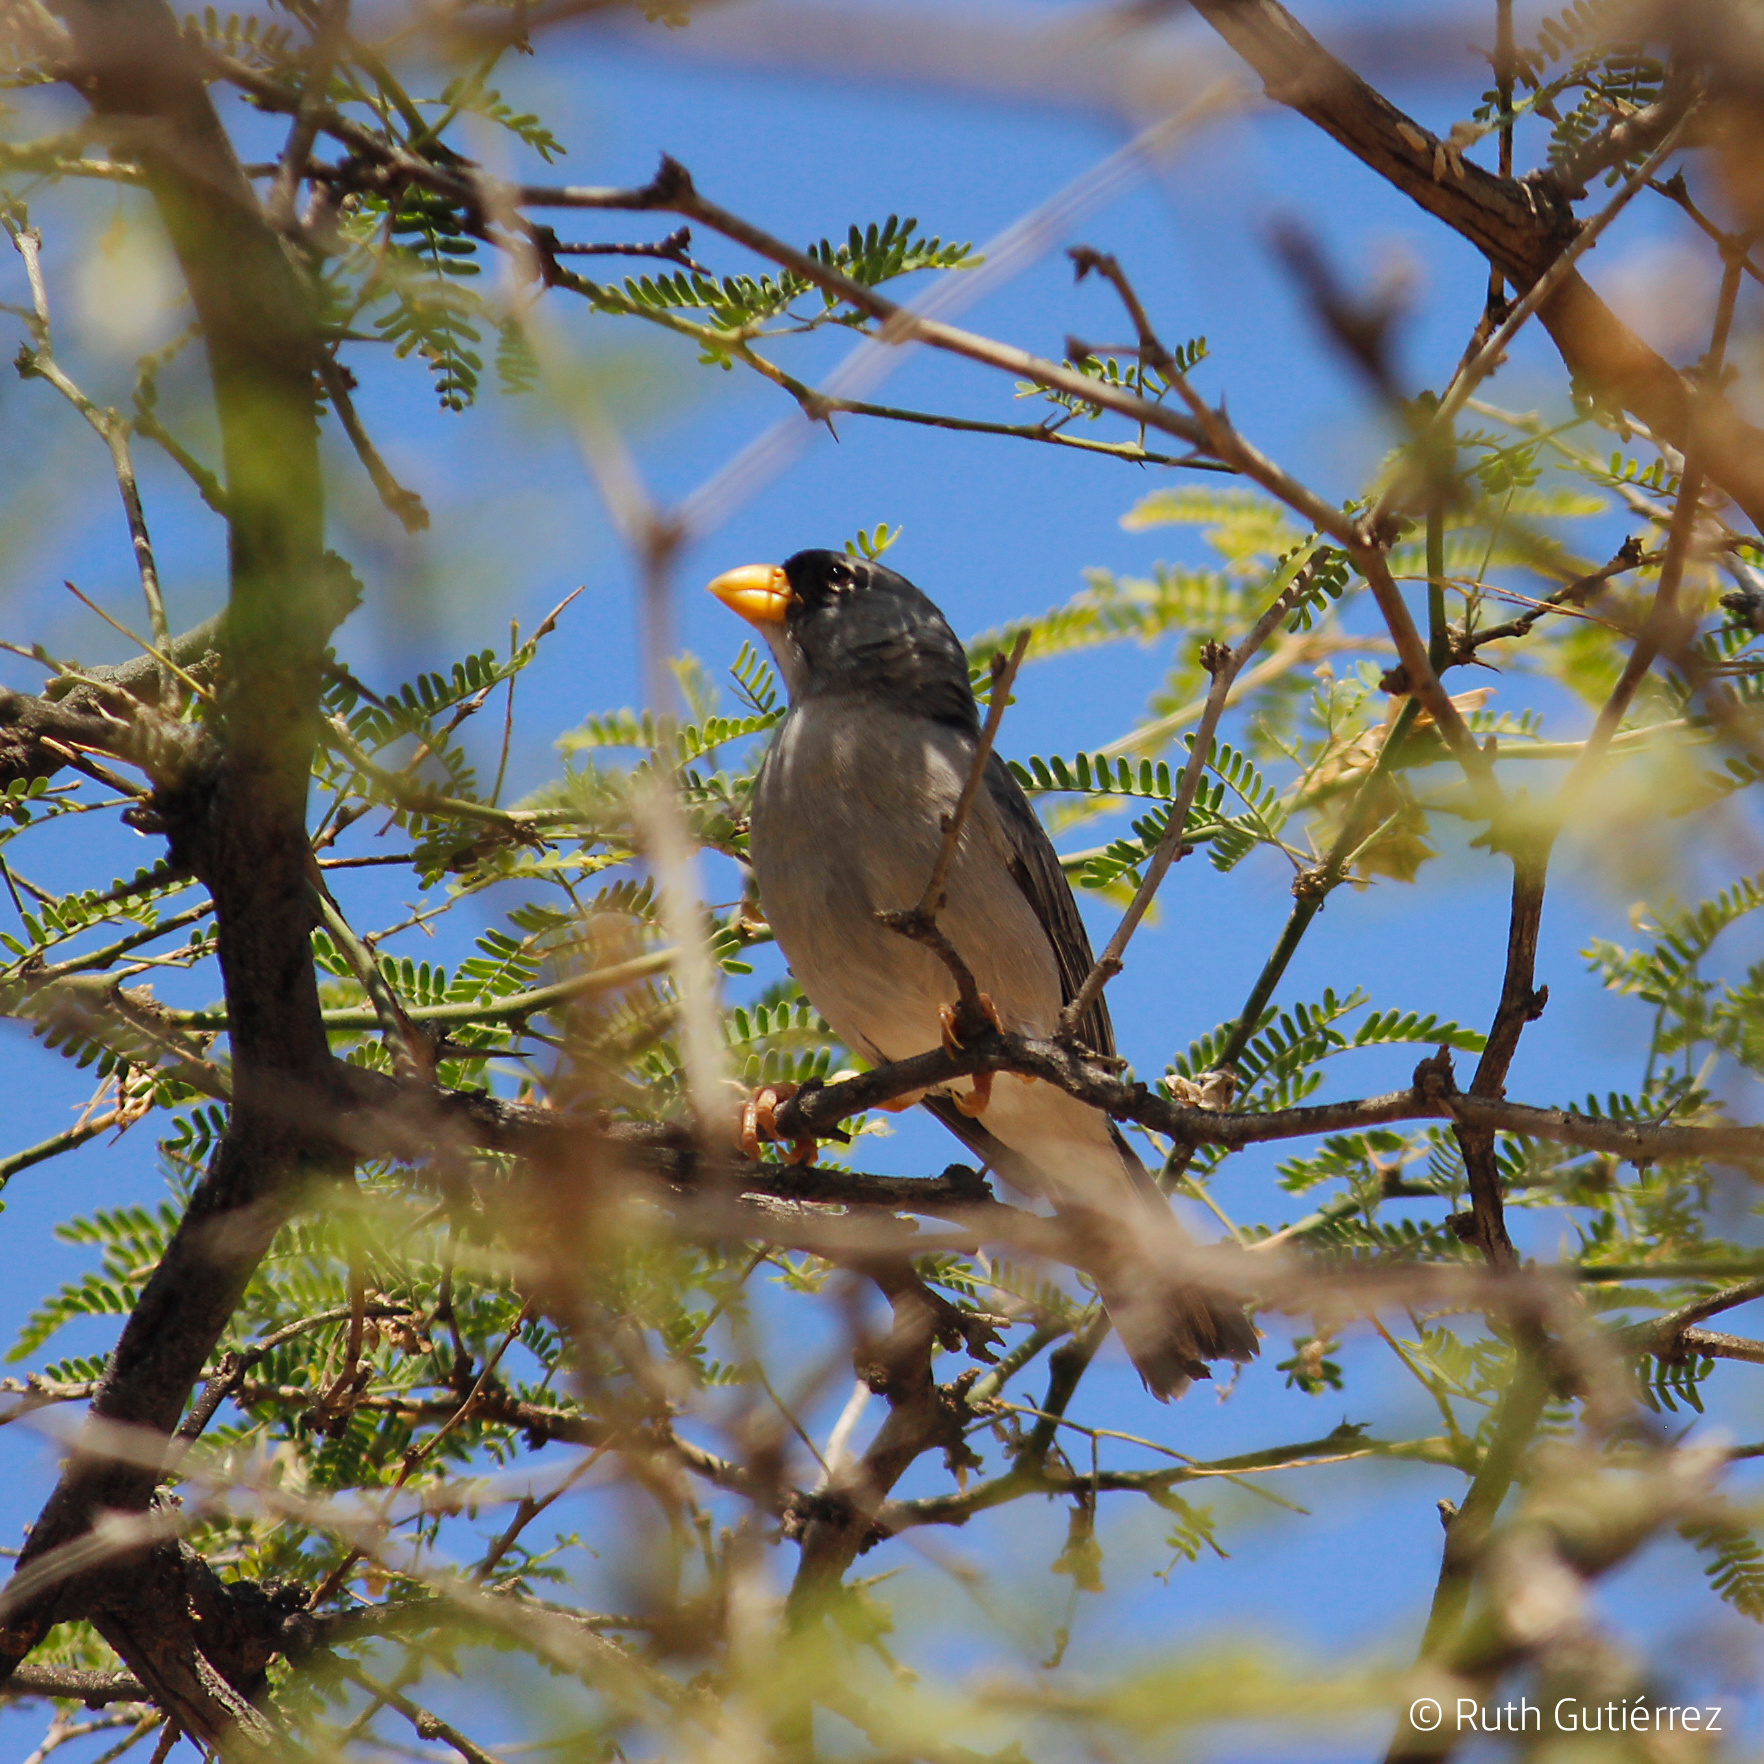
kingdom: Animalia
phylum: Chordata
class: Aves
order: Passeriformes
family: Thraupidae
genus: Piezorina
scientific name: Piezorina cinerea
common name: Cinereous finch
